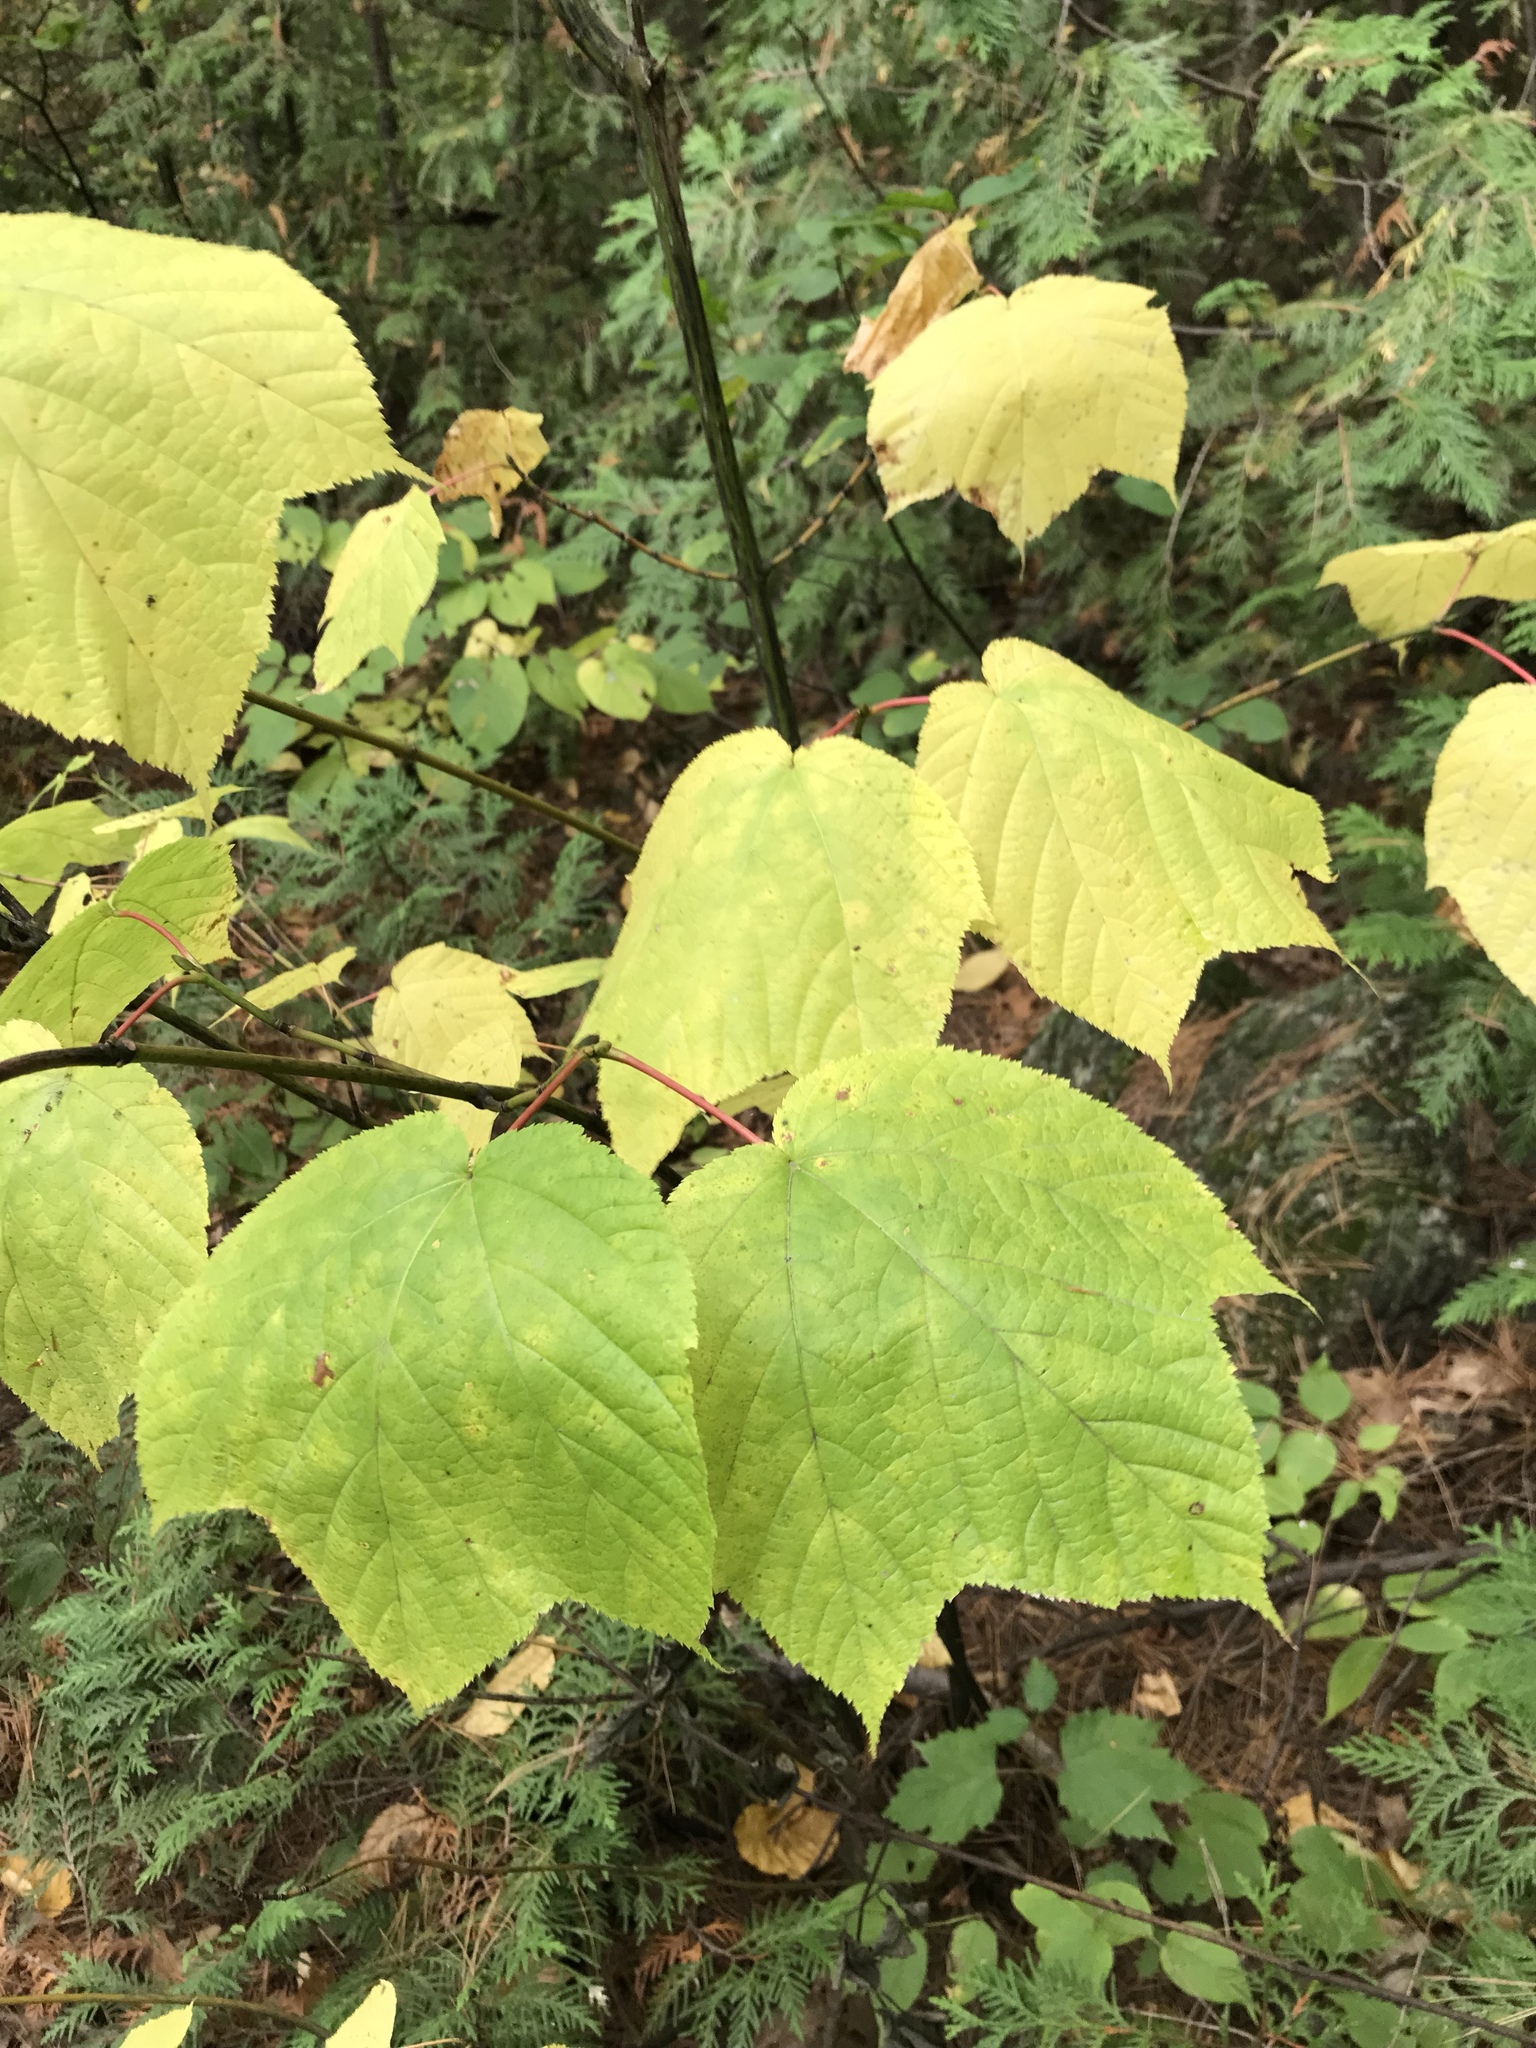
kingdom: Plantae
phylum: Tracheophyta
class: Magnoliopsida
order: Sapindales
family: Sapindaceae
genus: Acer
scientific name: Acer pensylvanicum
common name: Moosewood
